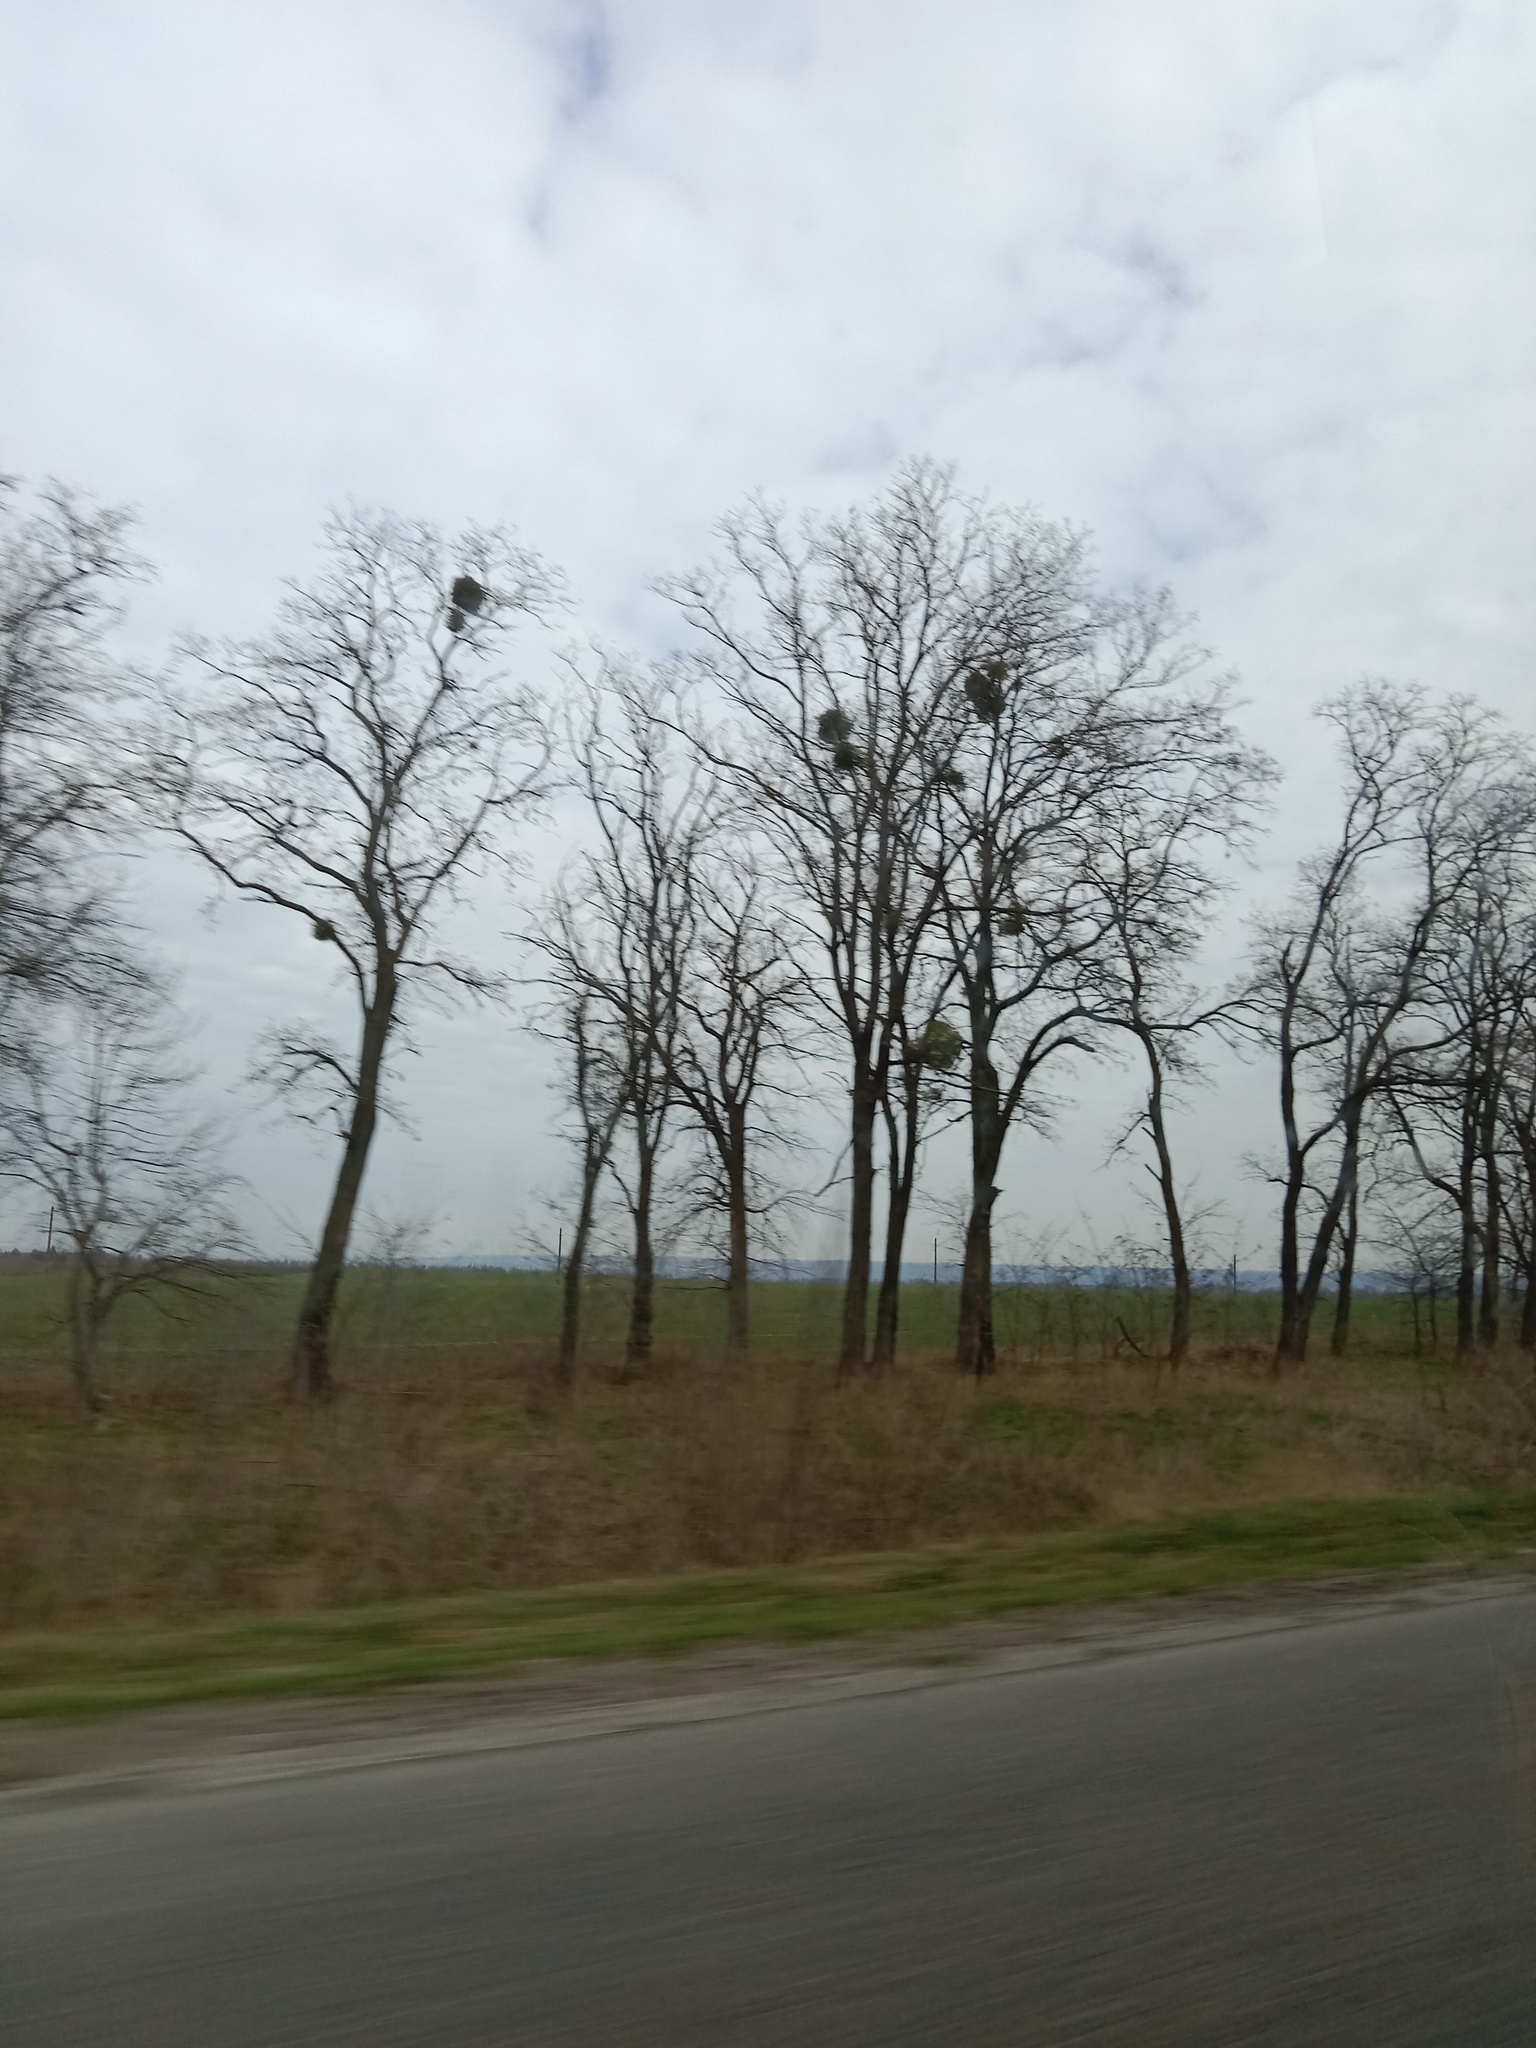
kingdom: Plantae
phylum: Tracheophyta
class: Magnoliopsida
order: Santalales
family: Viscaceae
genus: Viscum
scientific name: Viscum album
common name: Mistletoe
